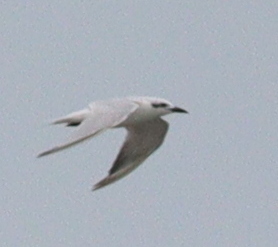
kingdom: Animalia
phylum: Chordata
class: Aves
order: Charadriiformes
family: Laridae
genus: Gelochelidon
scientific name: Gelochelidon nilotica
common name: Gull-billed tern
